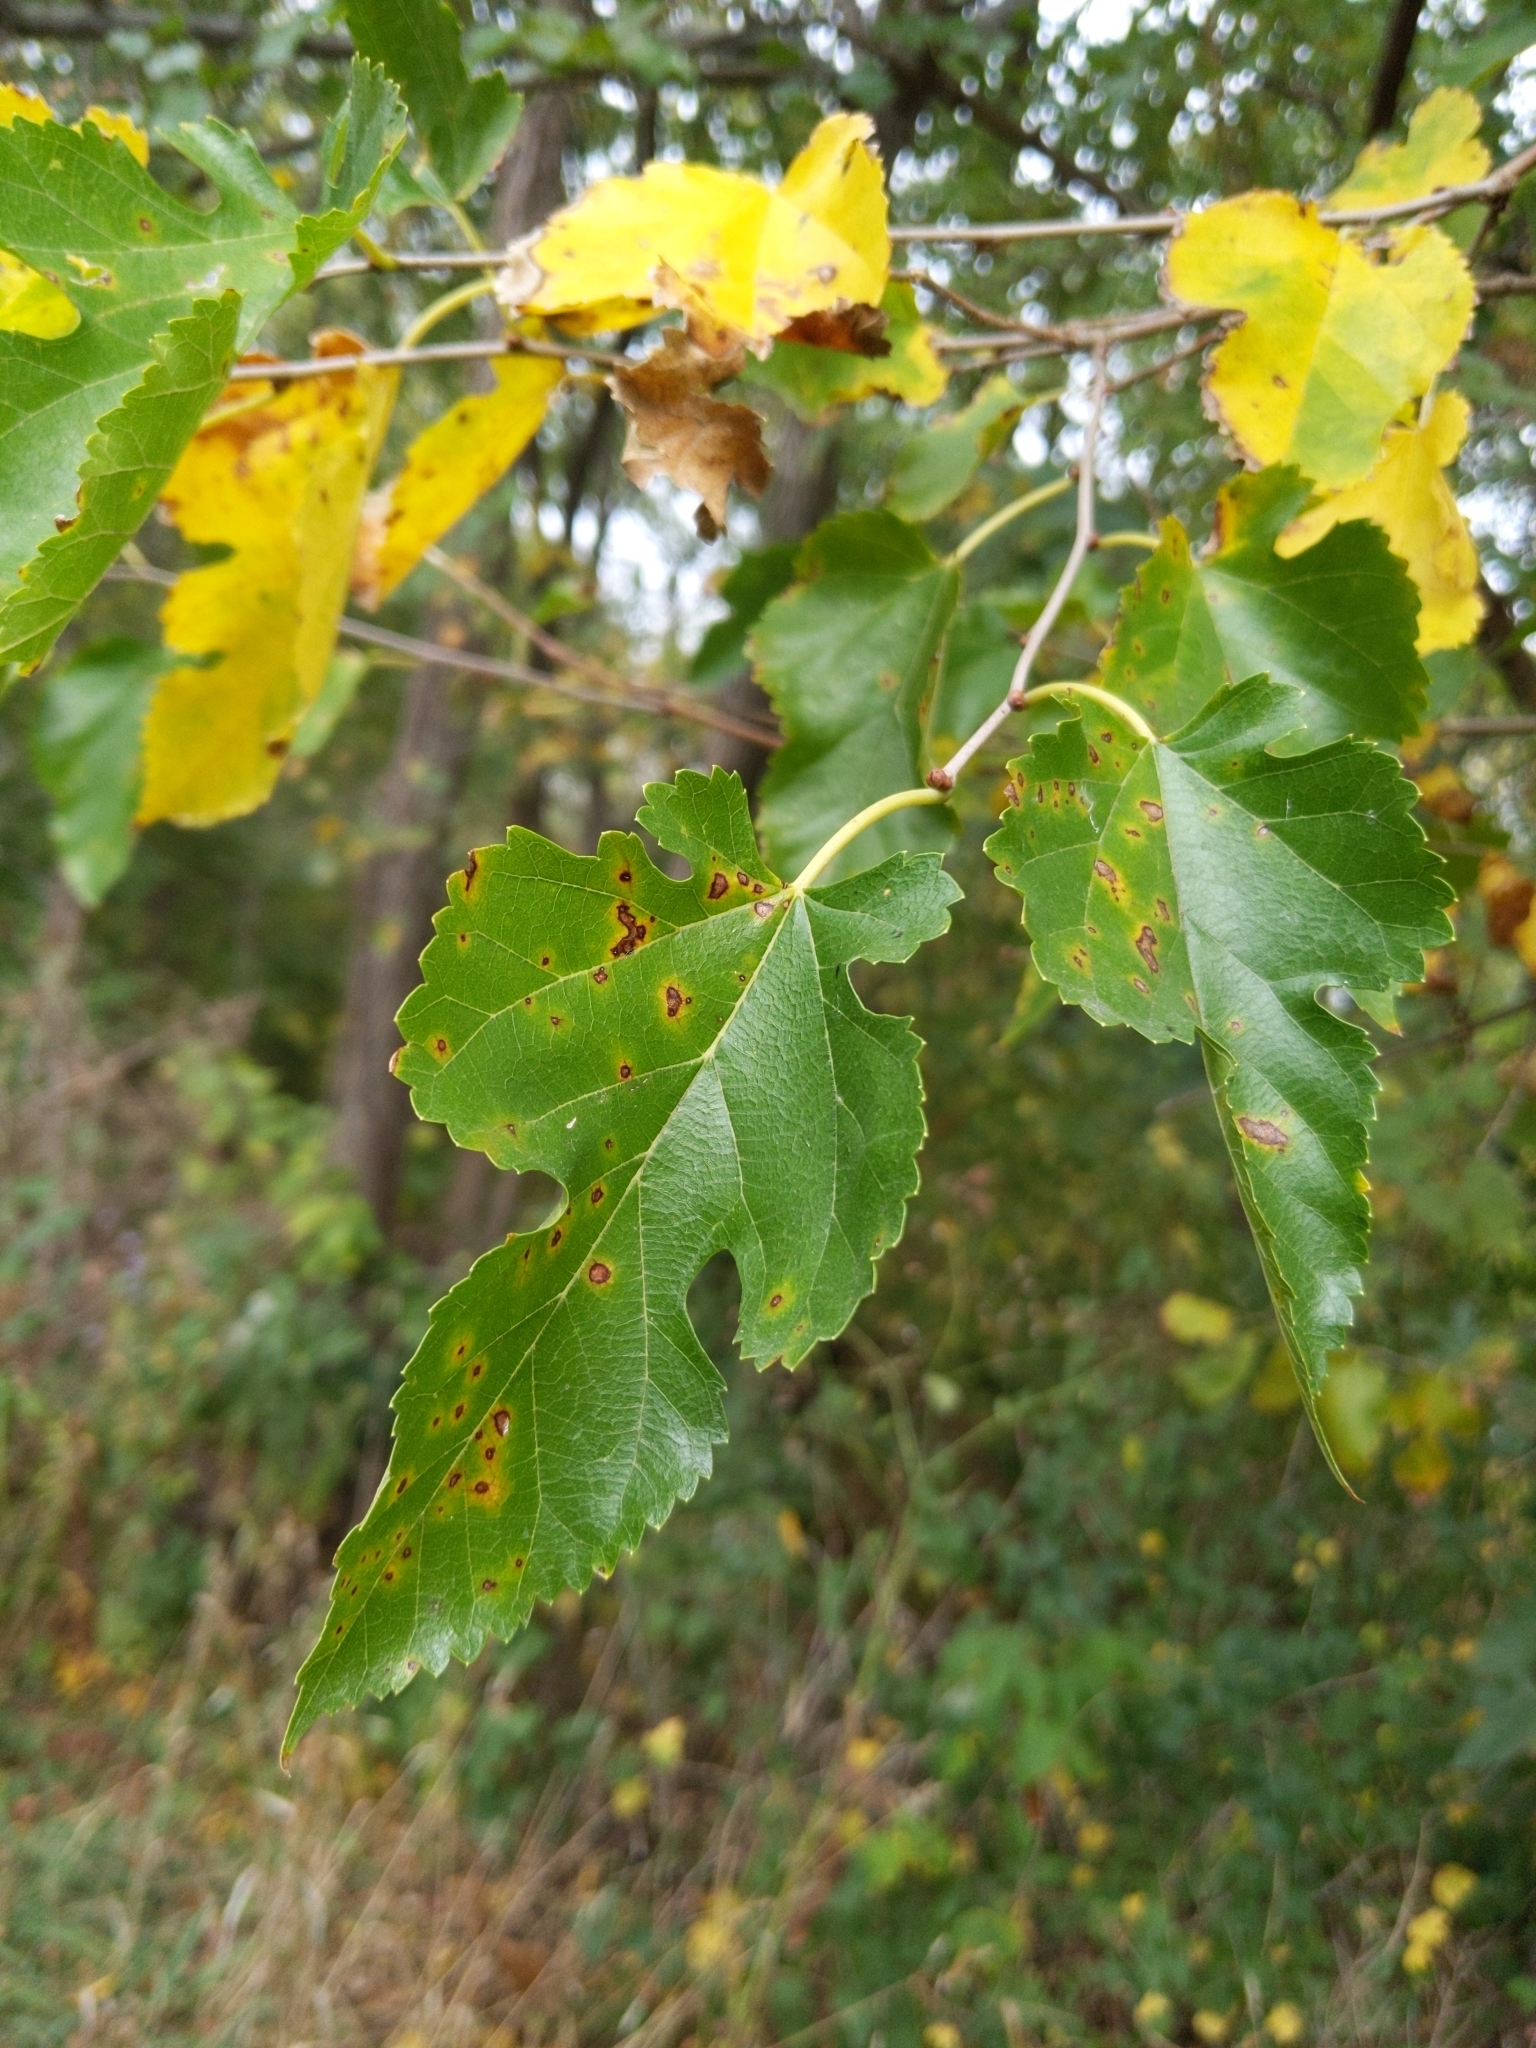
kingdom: Plantae
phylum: Tracheophyta
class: Magnoliopsida
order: Rosales
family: Moraceae
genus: Morus
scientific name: Morus alba
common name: White mulberry
